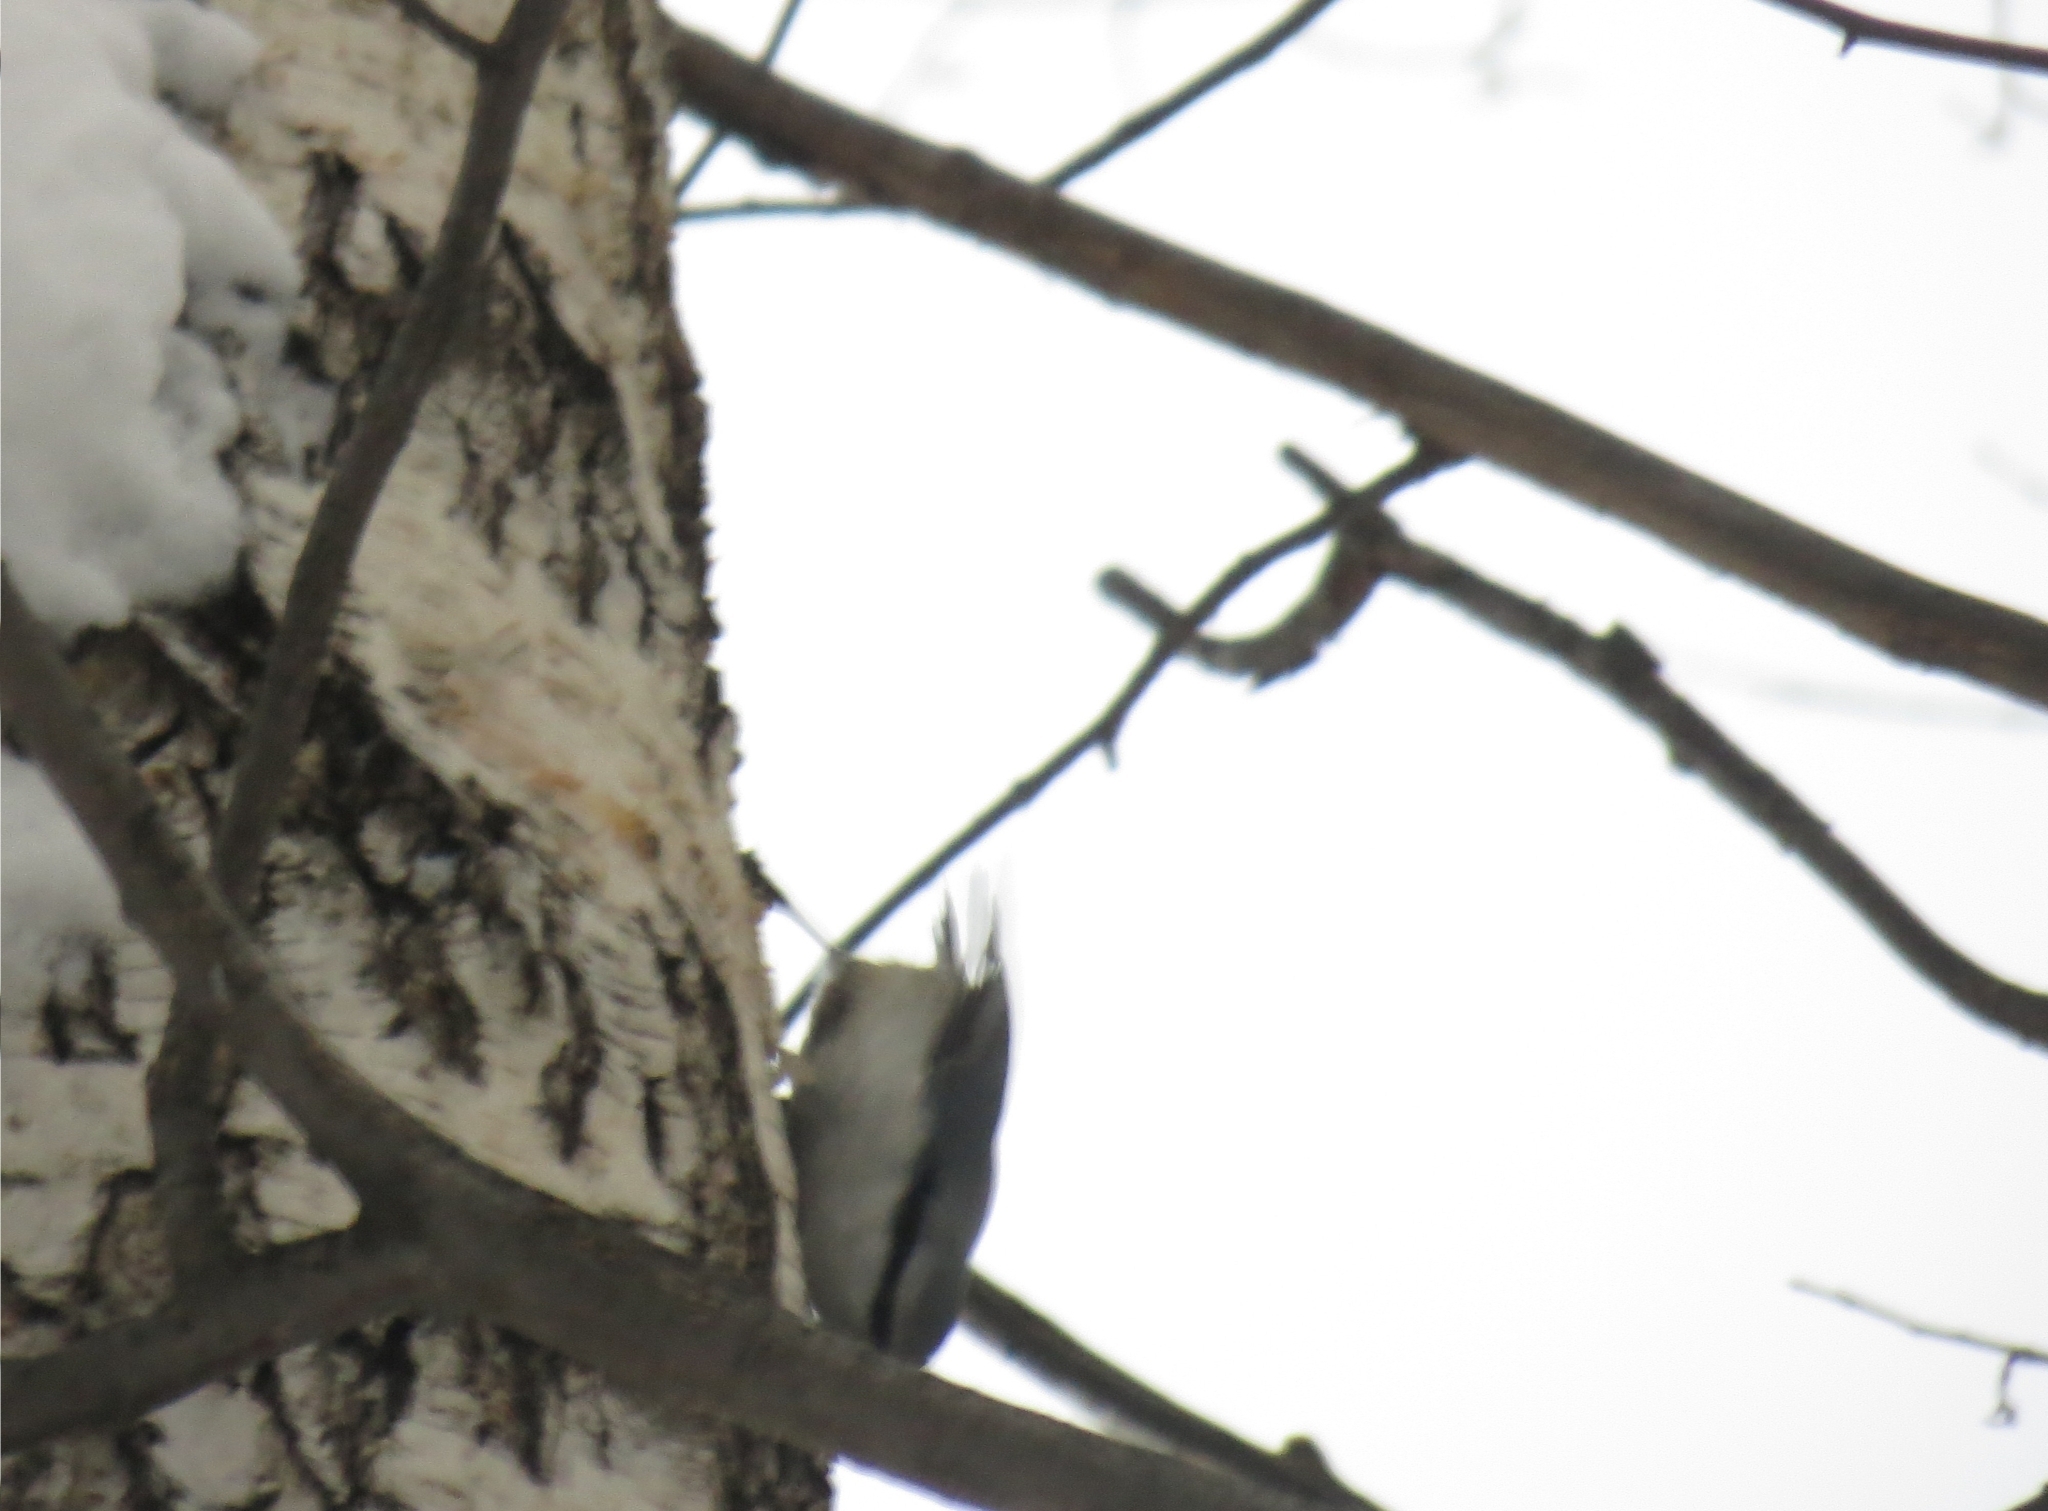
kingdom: Animalia
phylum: Chordata
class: Aves
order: Passeriformes
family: Sittidae
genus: Sitta
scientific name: Sitta europaea
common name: Eurasian nuthatch
